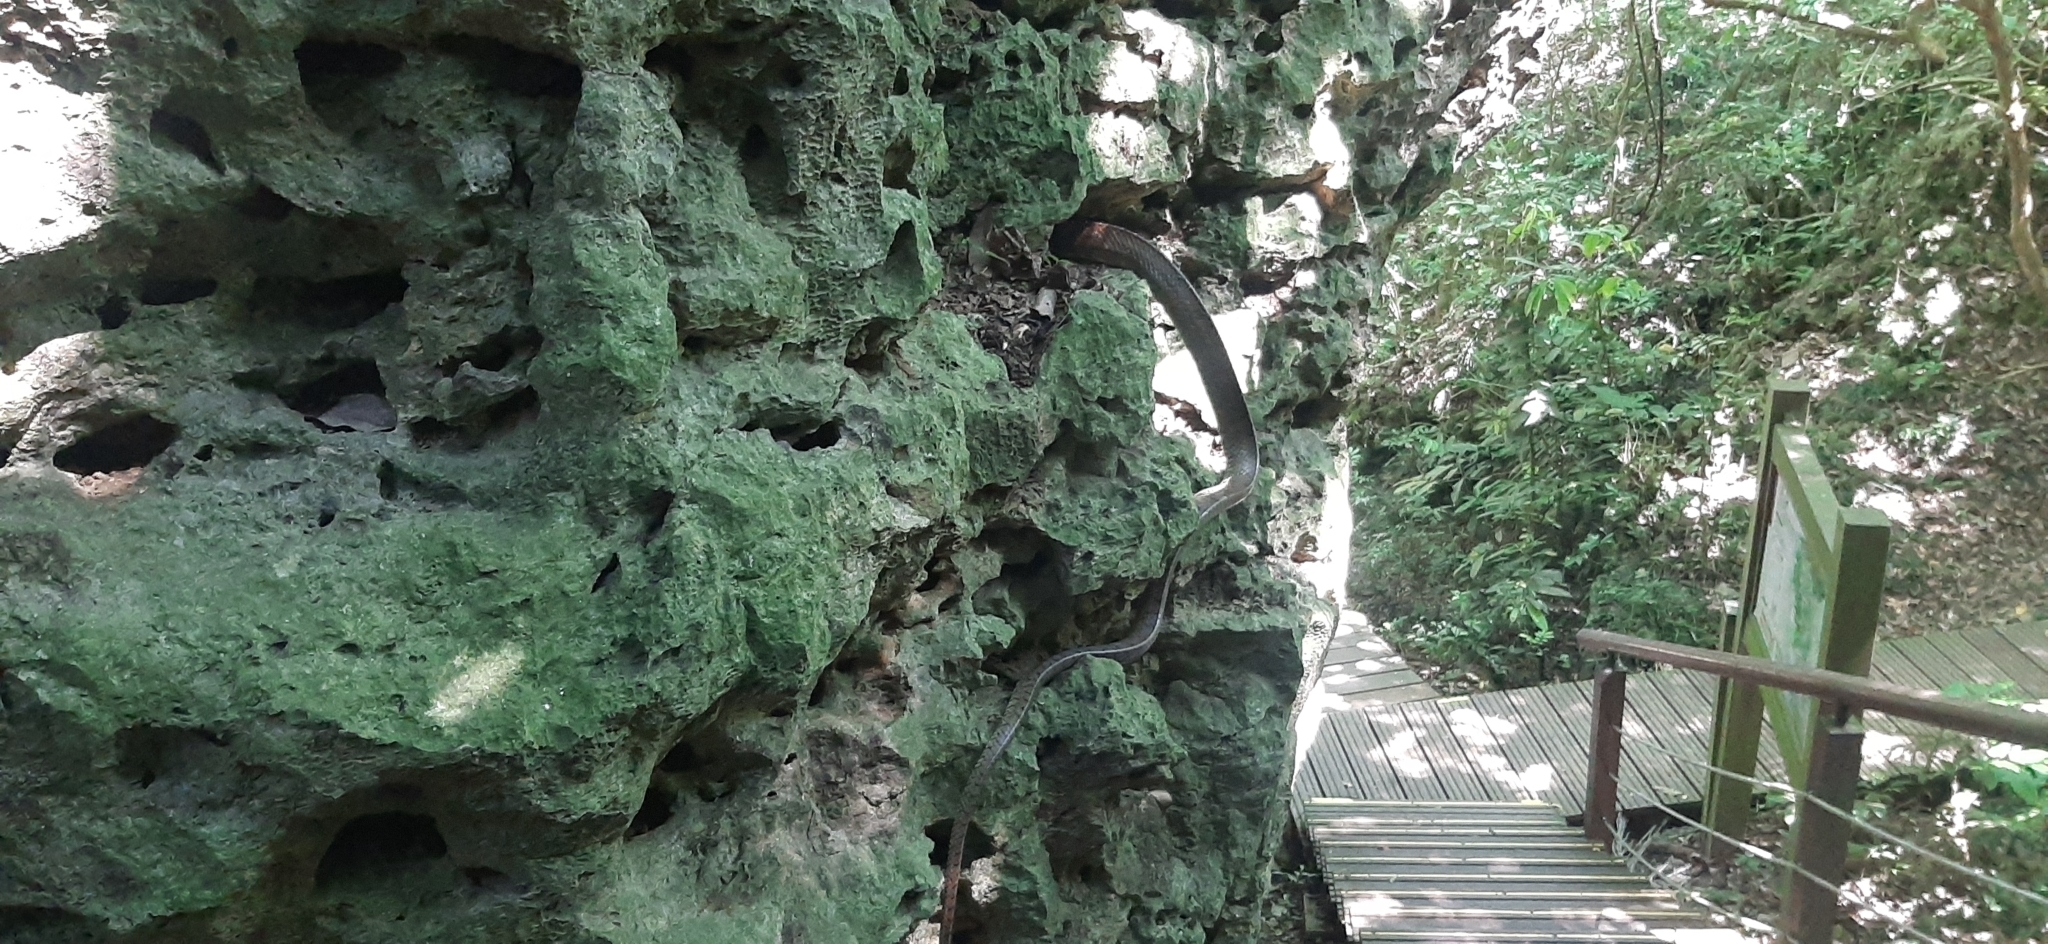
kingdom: Animalia
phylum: Chordata
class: Squamata
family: Colubridae
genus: Ptyas
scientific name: Ptyas mucosa
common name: Oriental ratsnake
